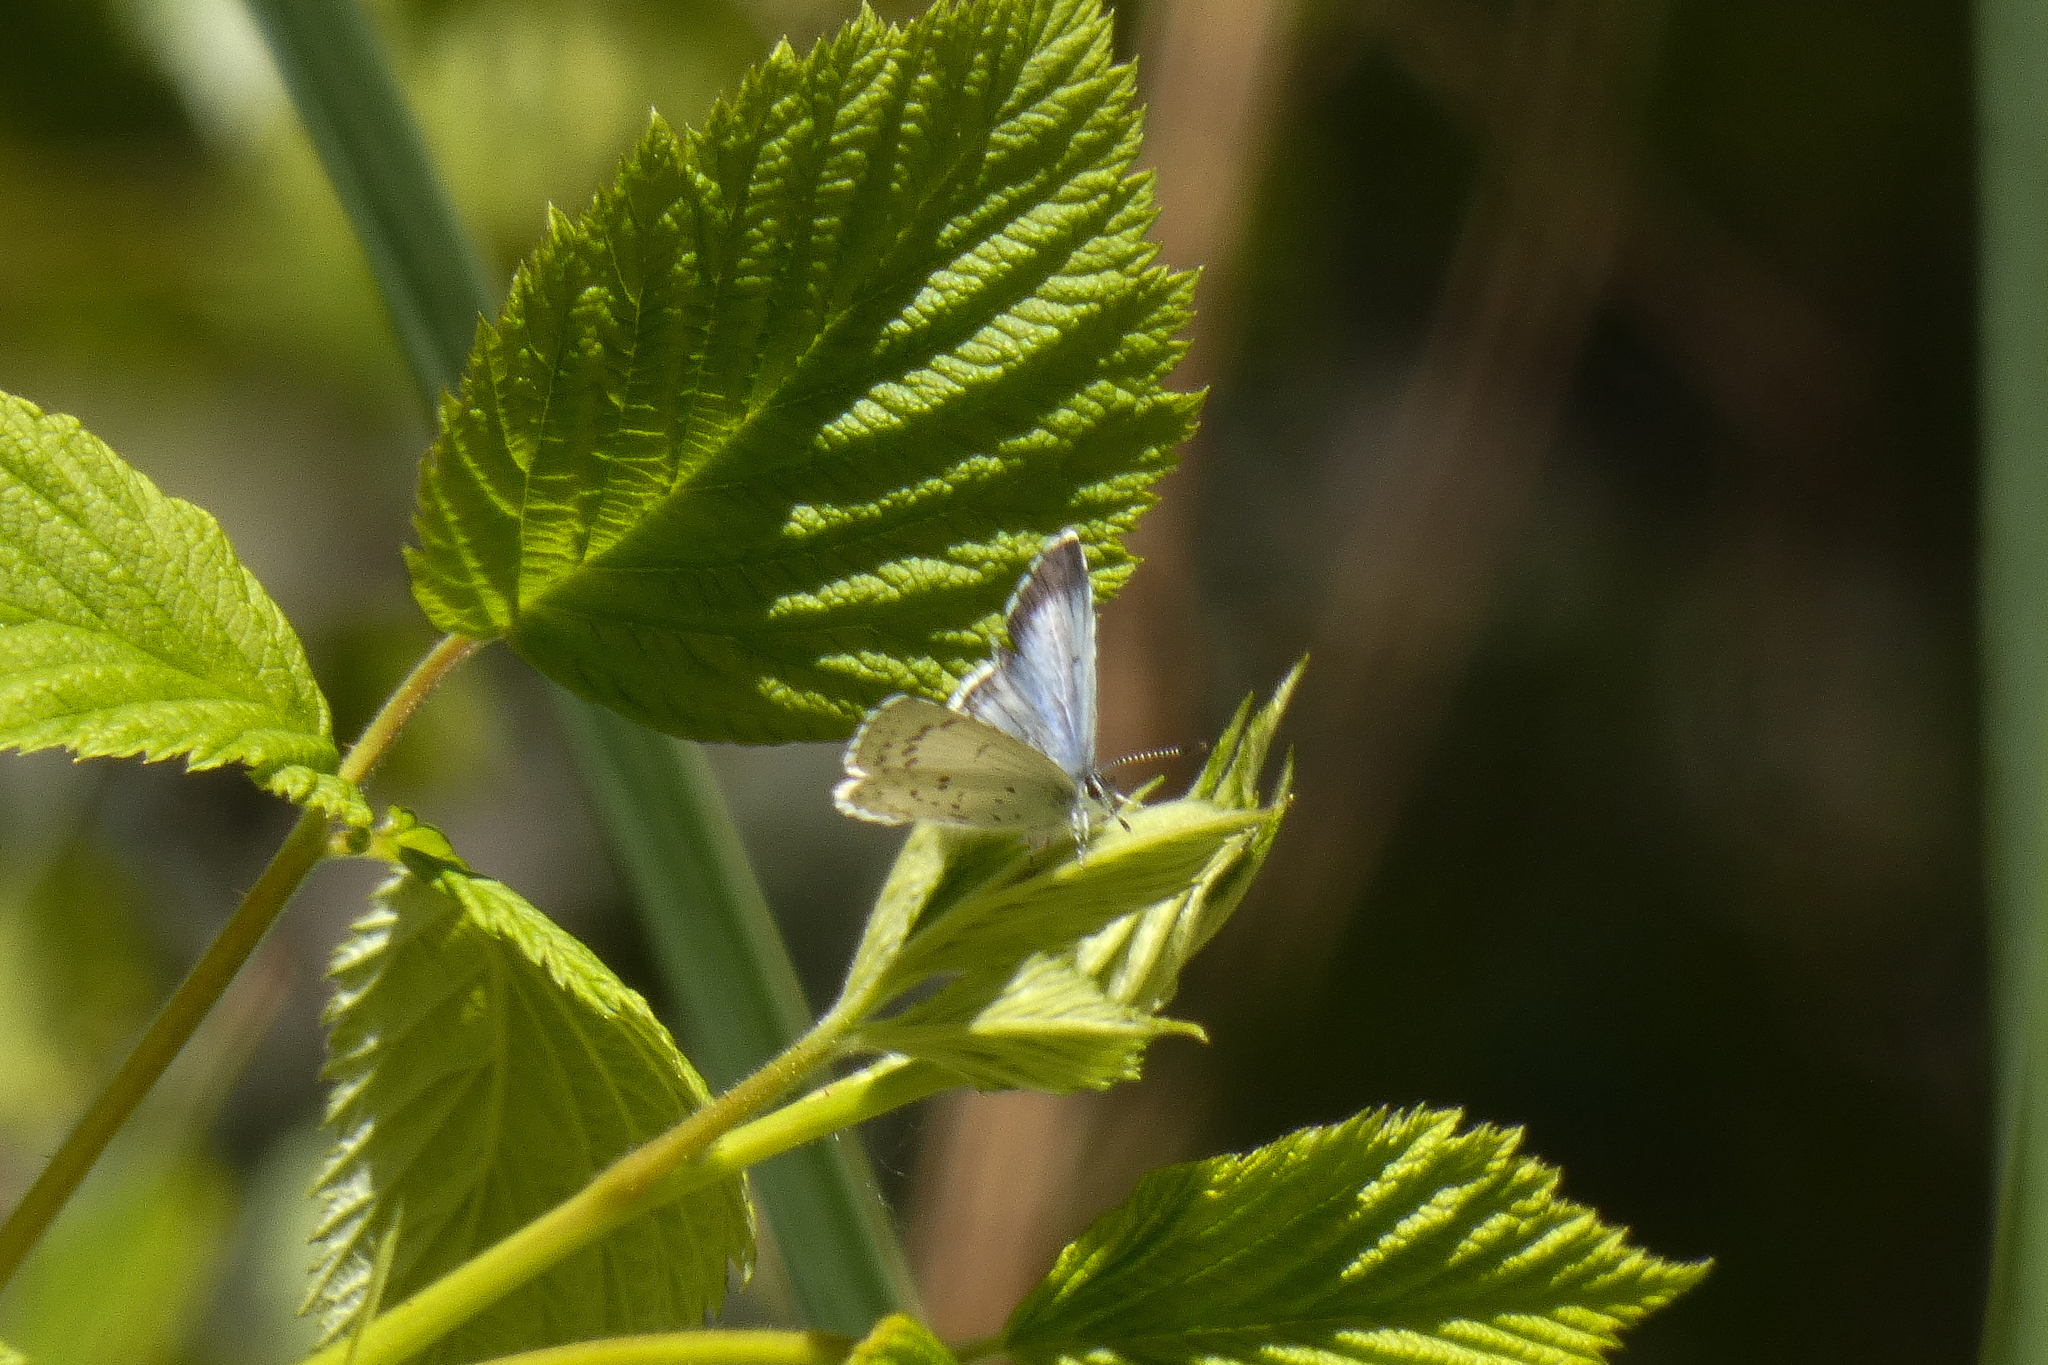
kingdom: Animalia
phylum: Arthropoda
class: Insecta
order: Lepidoptera
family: Lycaenidae
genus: Celastrina
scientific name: Celastrina ladon
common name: Spring azure
